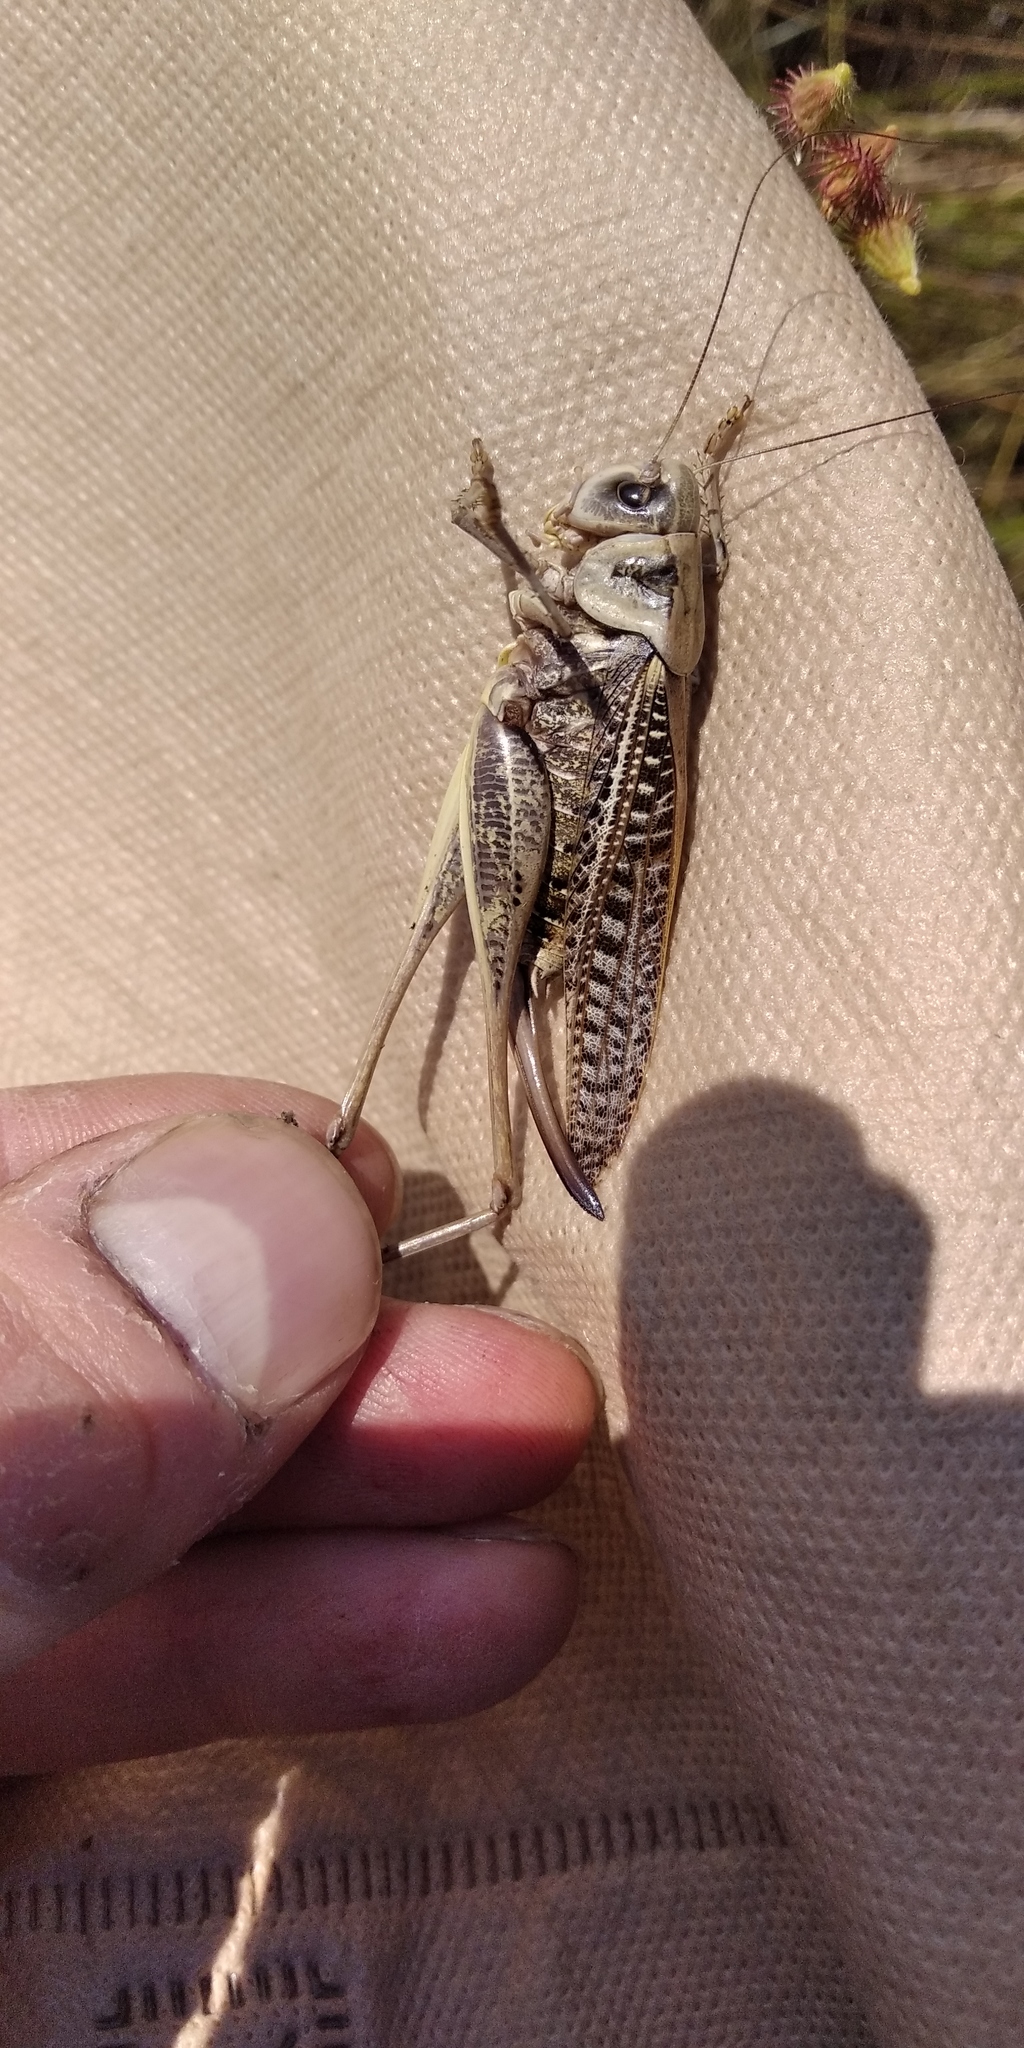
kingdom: Animalia
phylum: Arthropoda
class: Insecta
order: Orthoptera
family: Tettigoniidae
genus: Decticus
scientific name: Decticus verrucivorus
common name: Wart-biter
